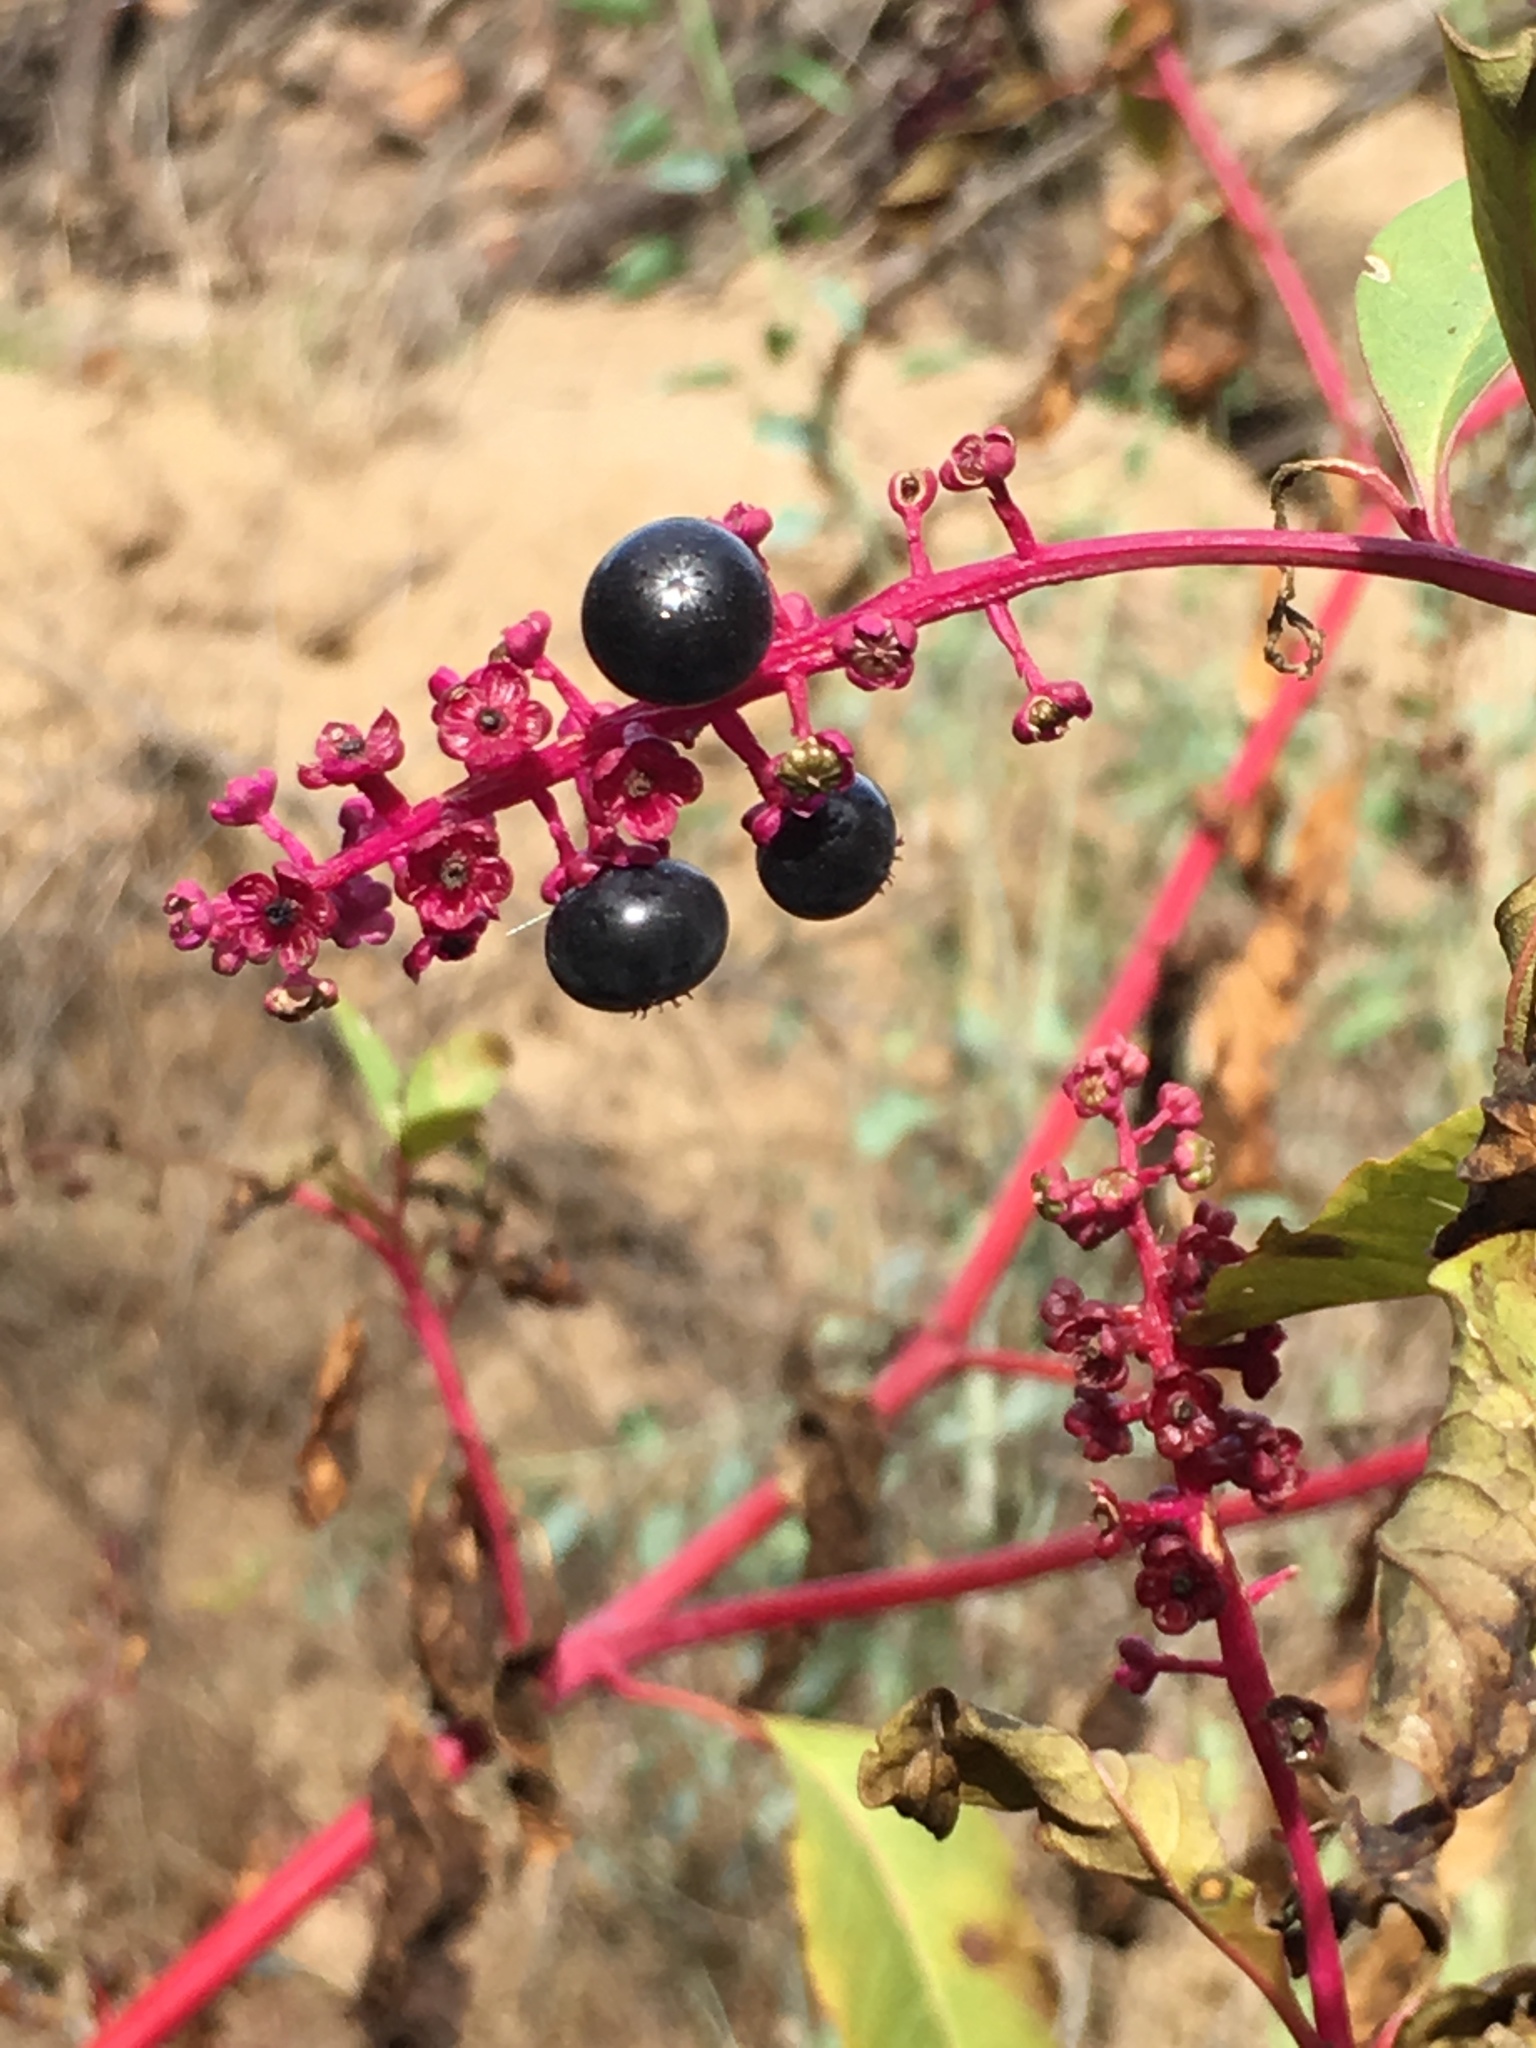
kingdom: Plantae
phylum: Tracheophyta
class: Magnoliopsida
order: Caryophyllales
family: Phytolaccaceae
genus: Phytolacca
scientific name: Phytolacca americana
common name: American pokeweed
